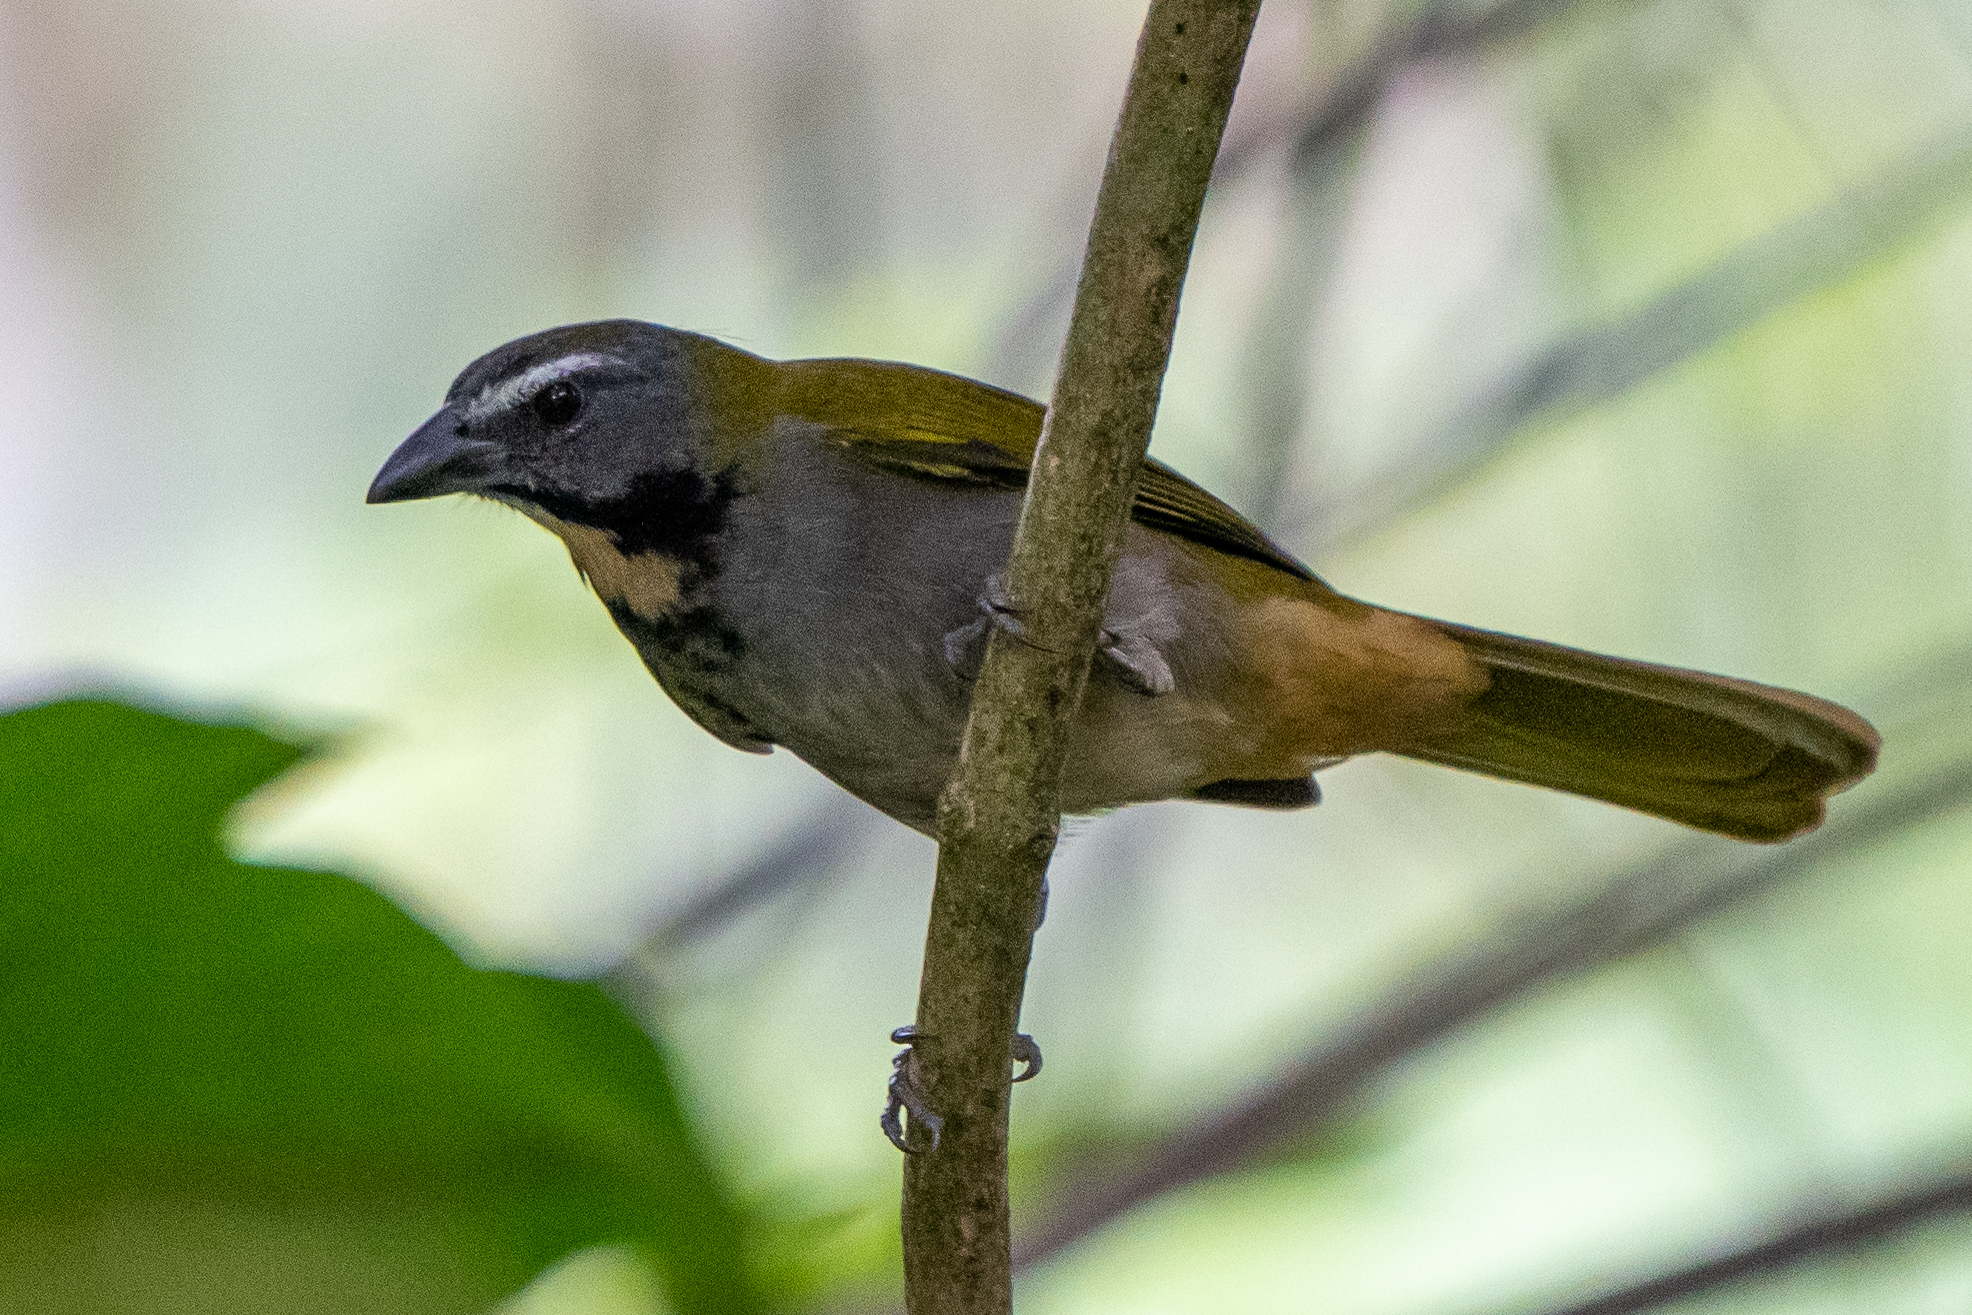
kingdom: Animalia
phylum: Chordata
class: Aves
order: Passeriformes
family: Thraupidae
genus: Saltator
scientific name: Saltator maximus
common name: Buff-throated saltator
